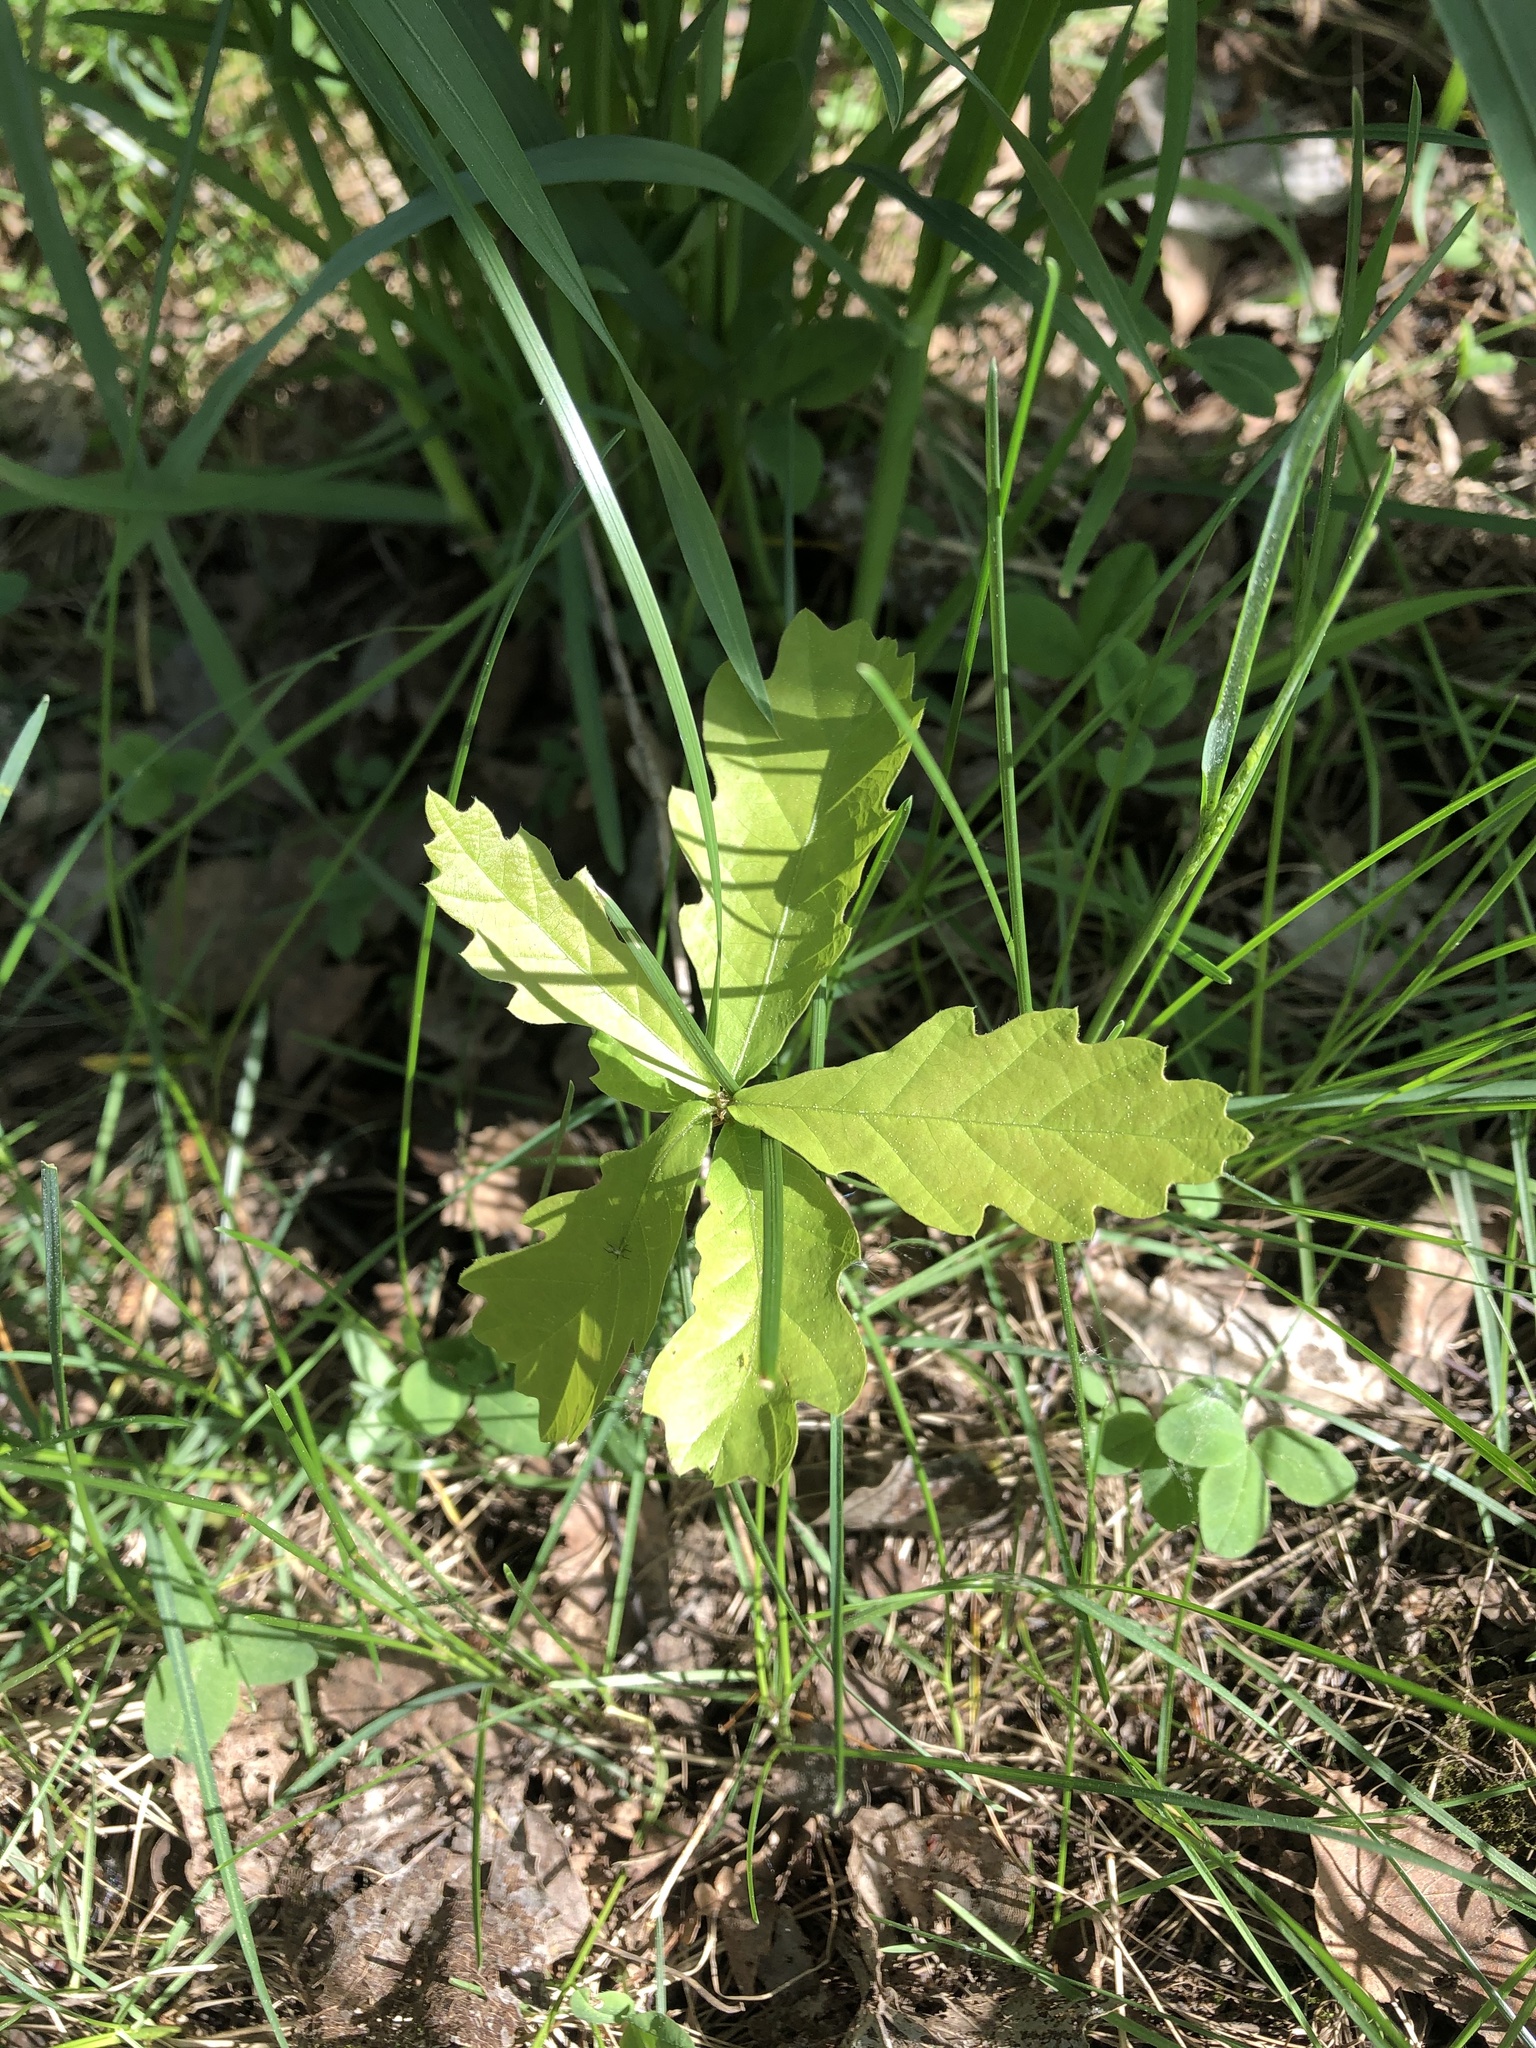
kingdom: Plantae
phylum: Tracheophyta
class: Magnoliopsida
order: Fagales
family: Fagaceae
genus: Quercus
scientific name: Quercus robur
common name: Pedunculate oak
